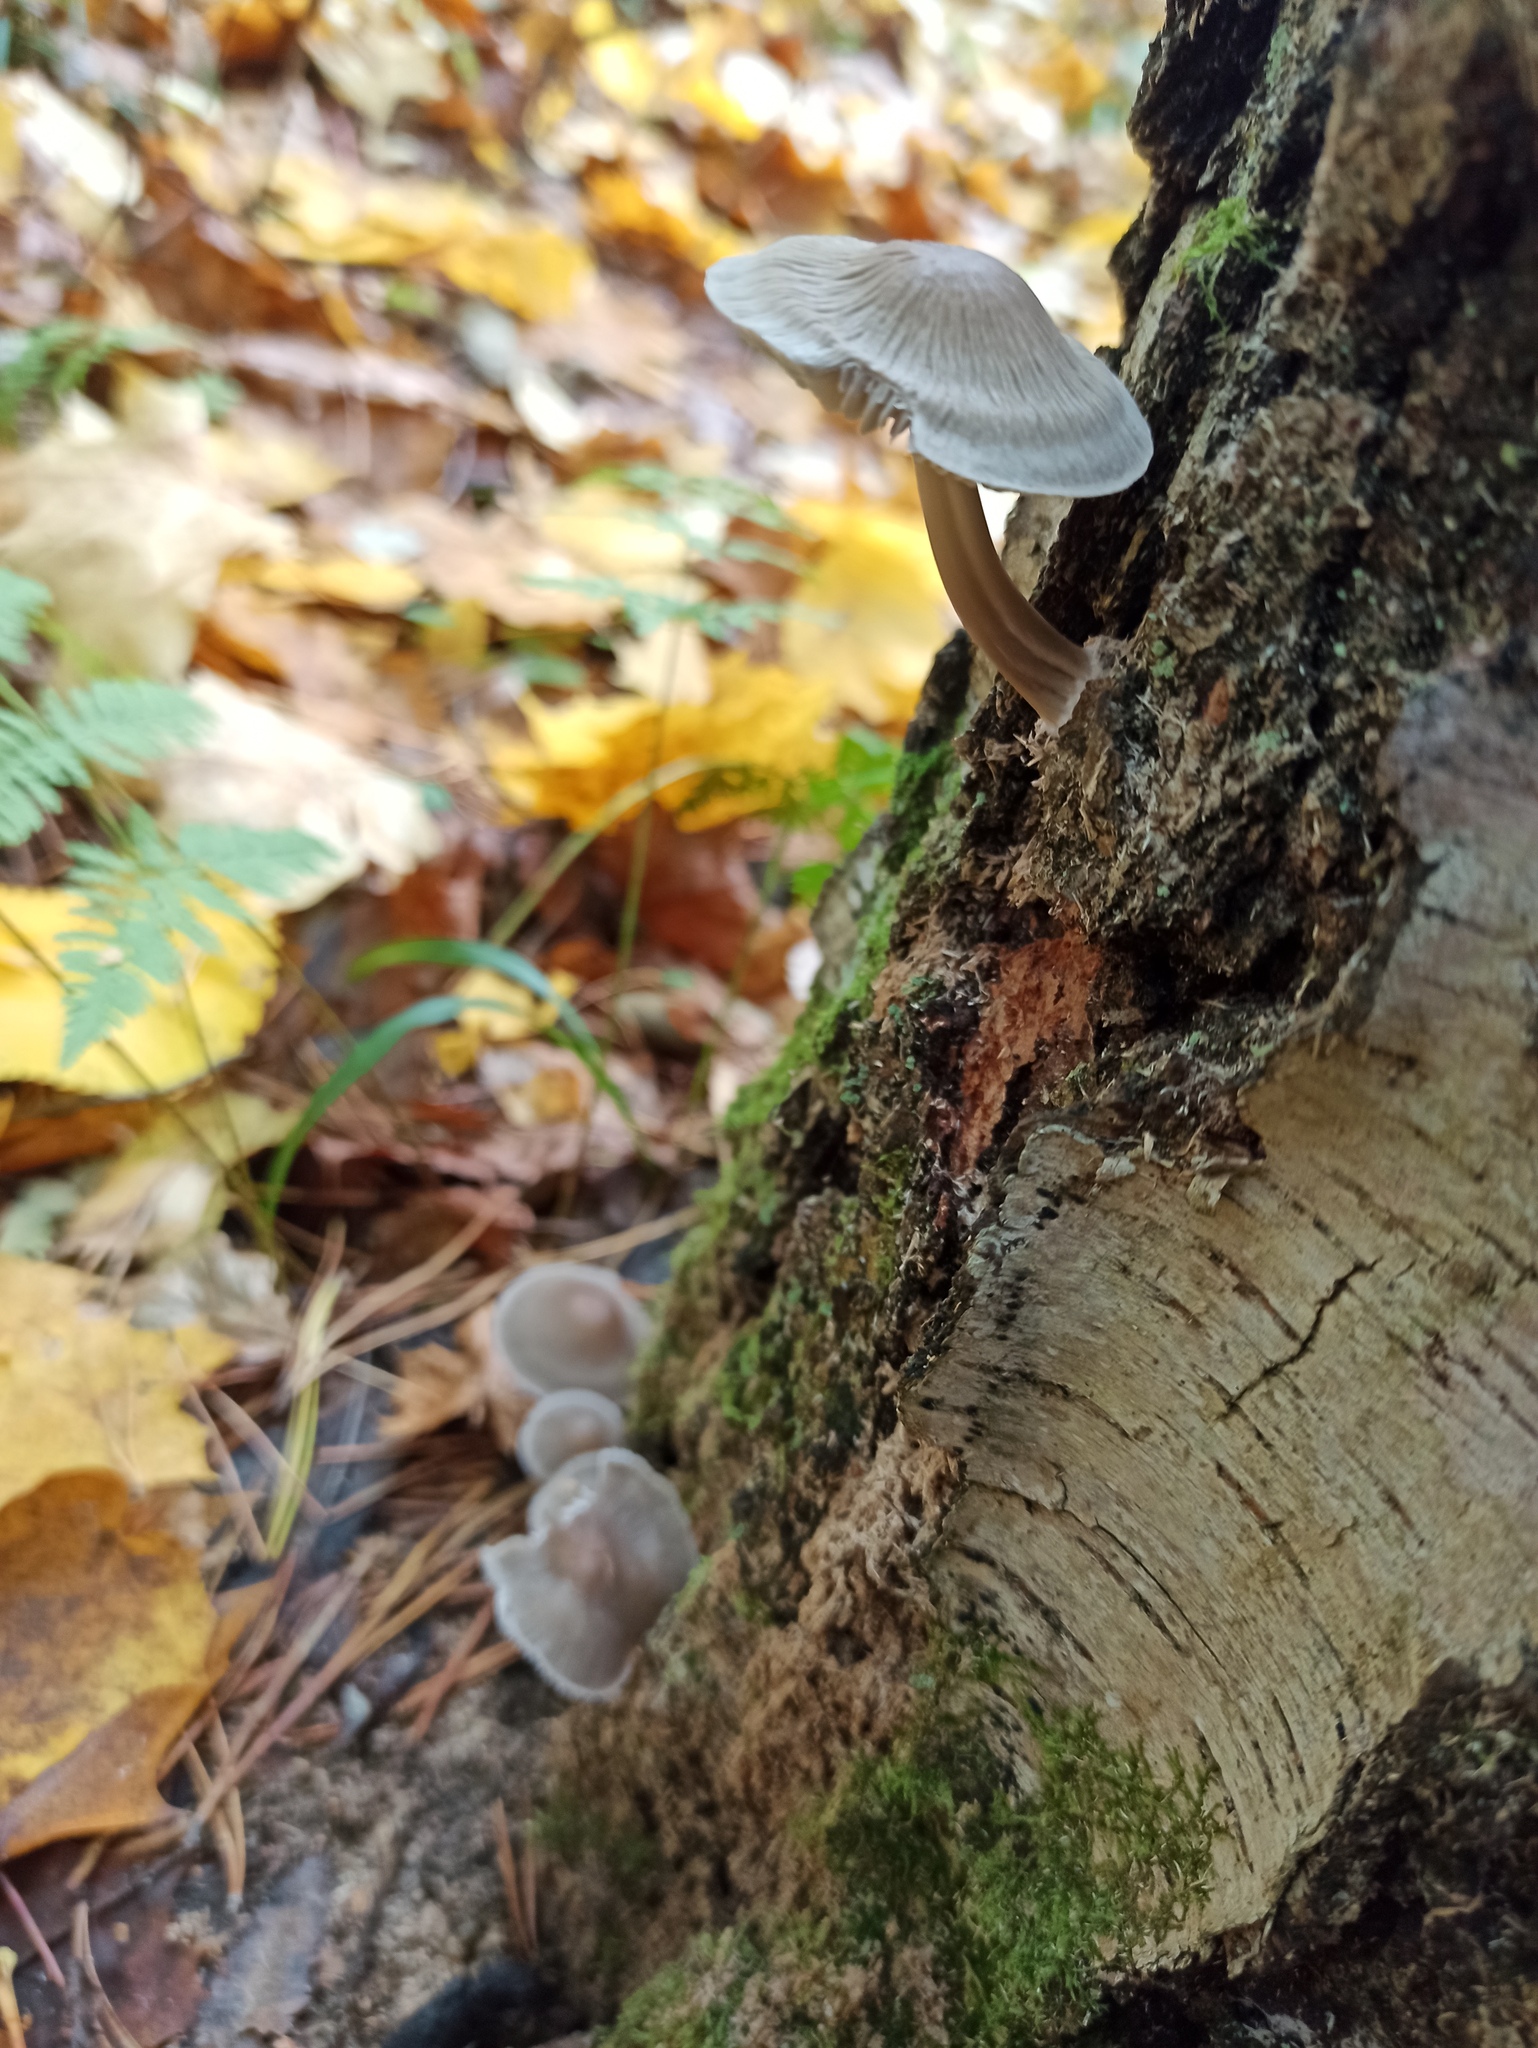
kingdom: Fungi
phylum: Basidiomycota
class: Agaricomycetes
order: Agaricales
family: Mycenaceae
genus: Mycena
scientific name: Mycena galericulata
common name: Bonnet mycena
